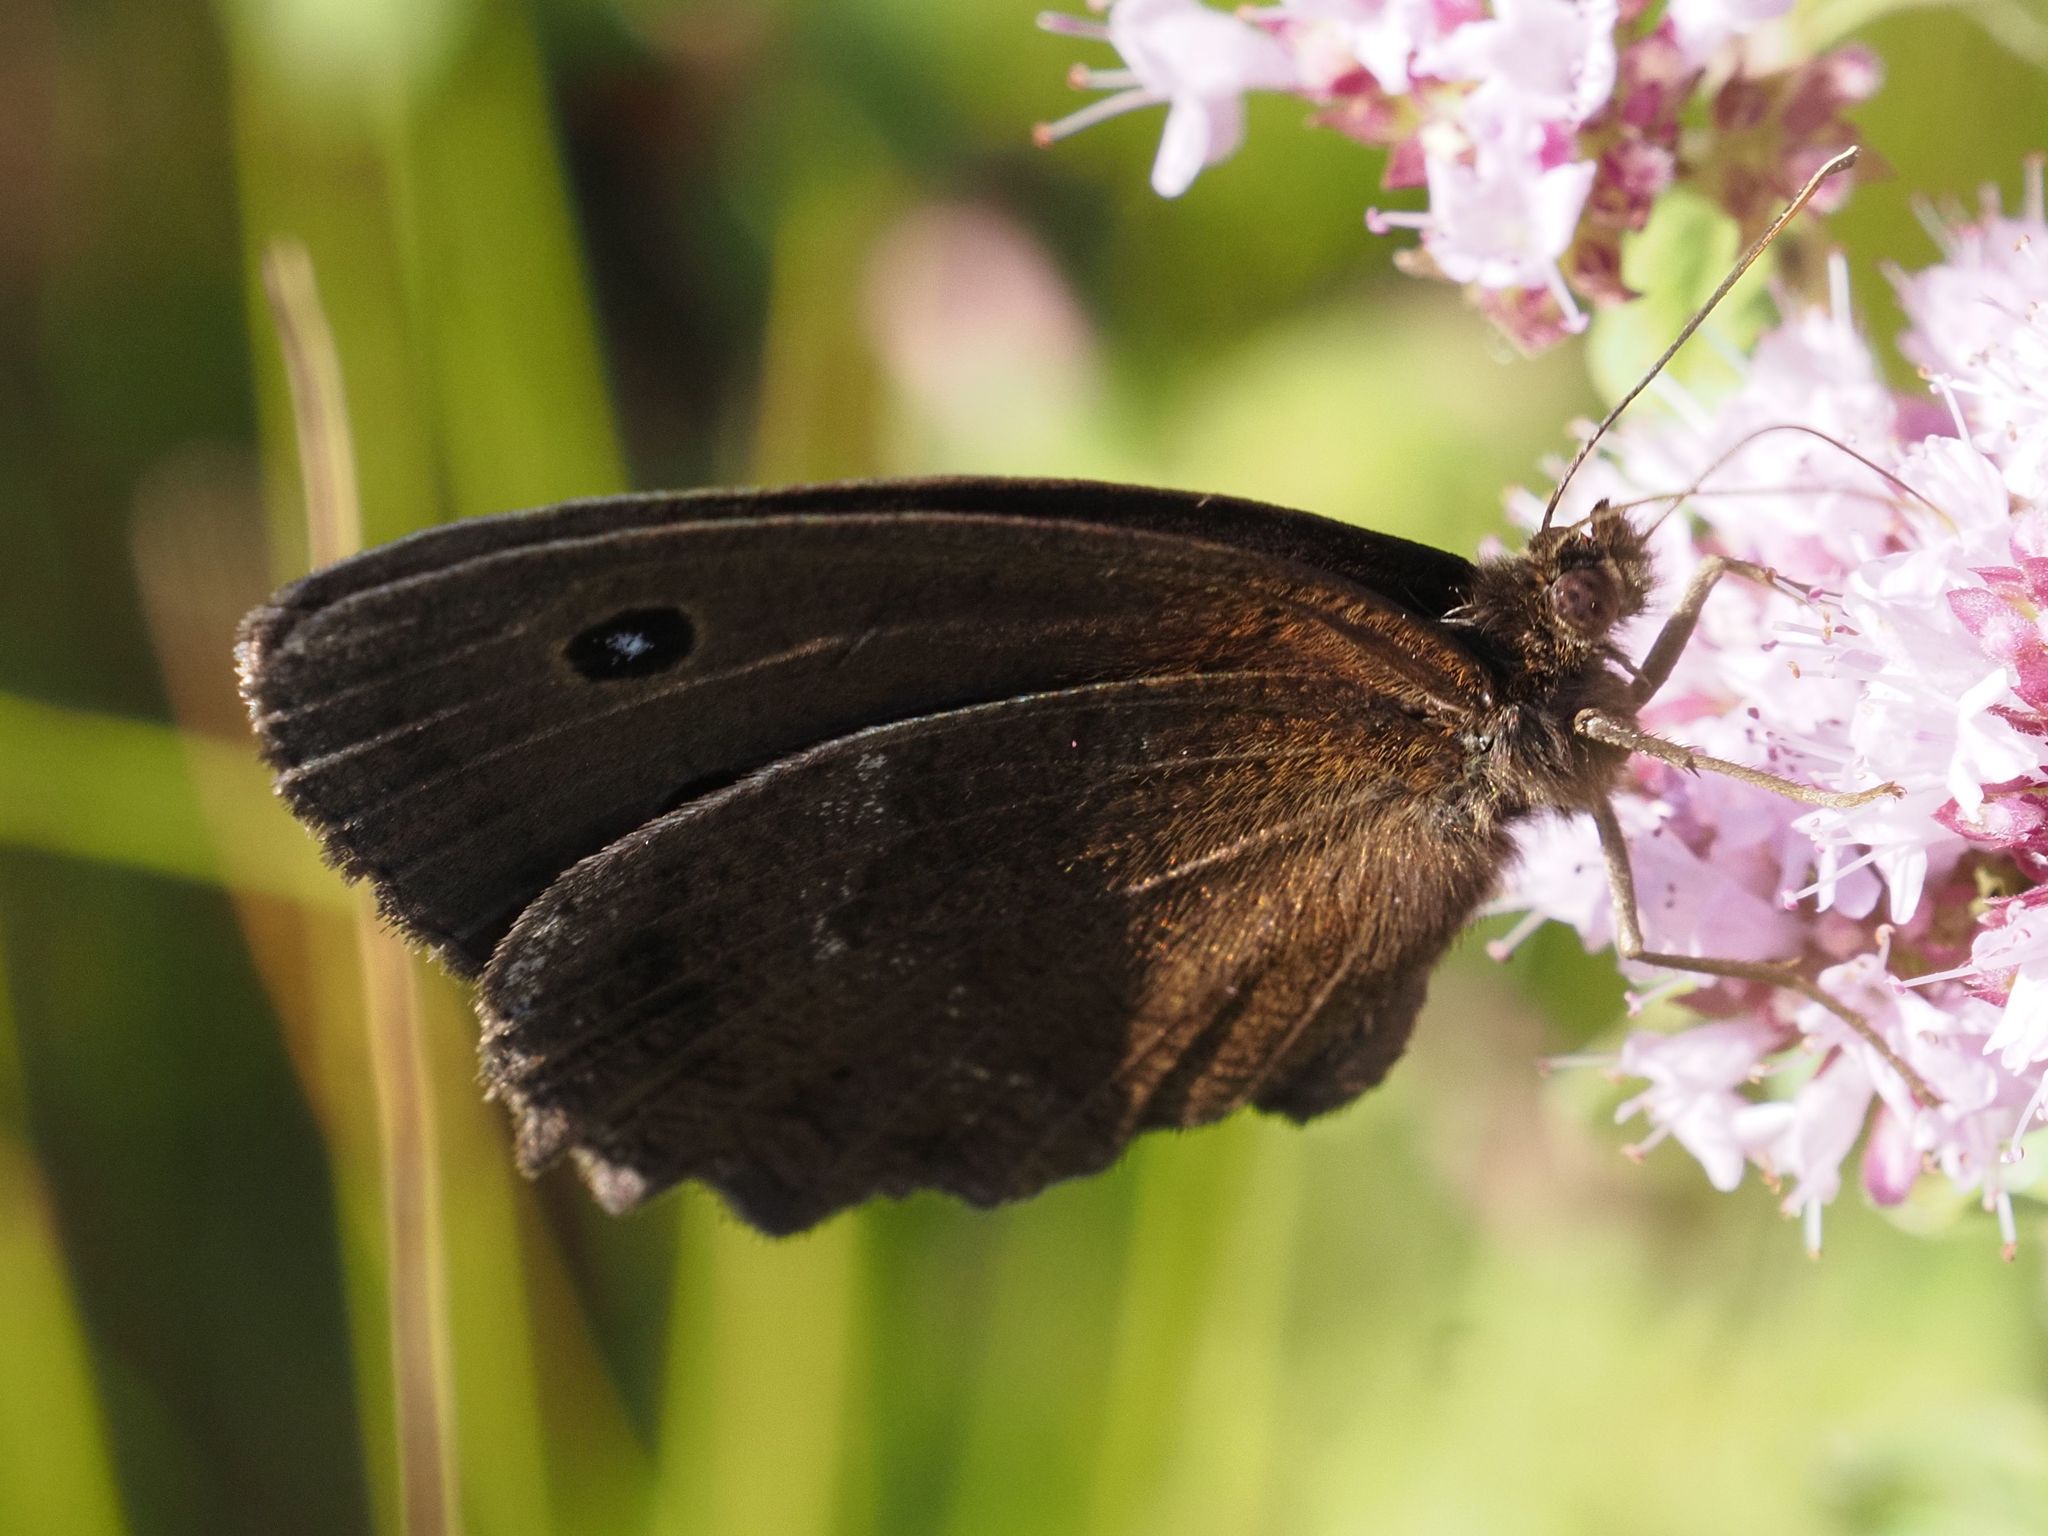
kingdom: Animalia
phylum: Arthropoda
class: Insecta
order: Lepidoptera
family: Nymphalidae
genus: Minois
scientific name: Minois dryas
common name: Dryad
